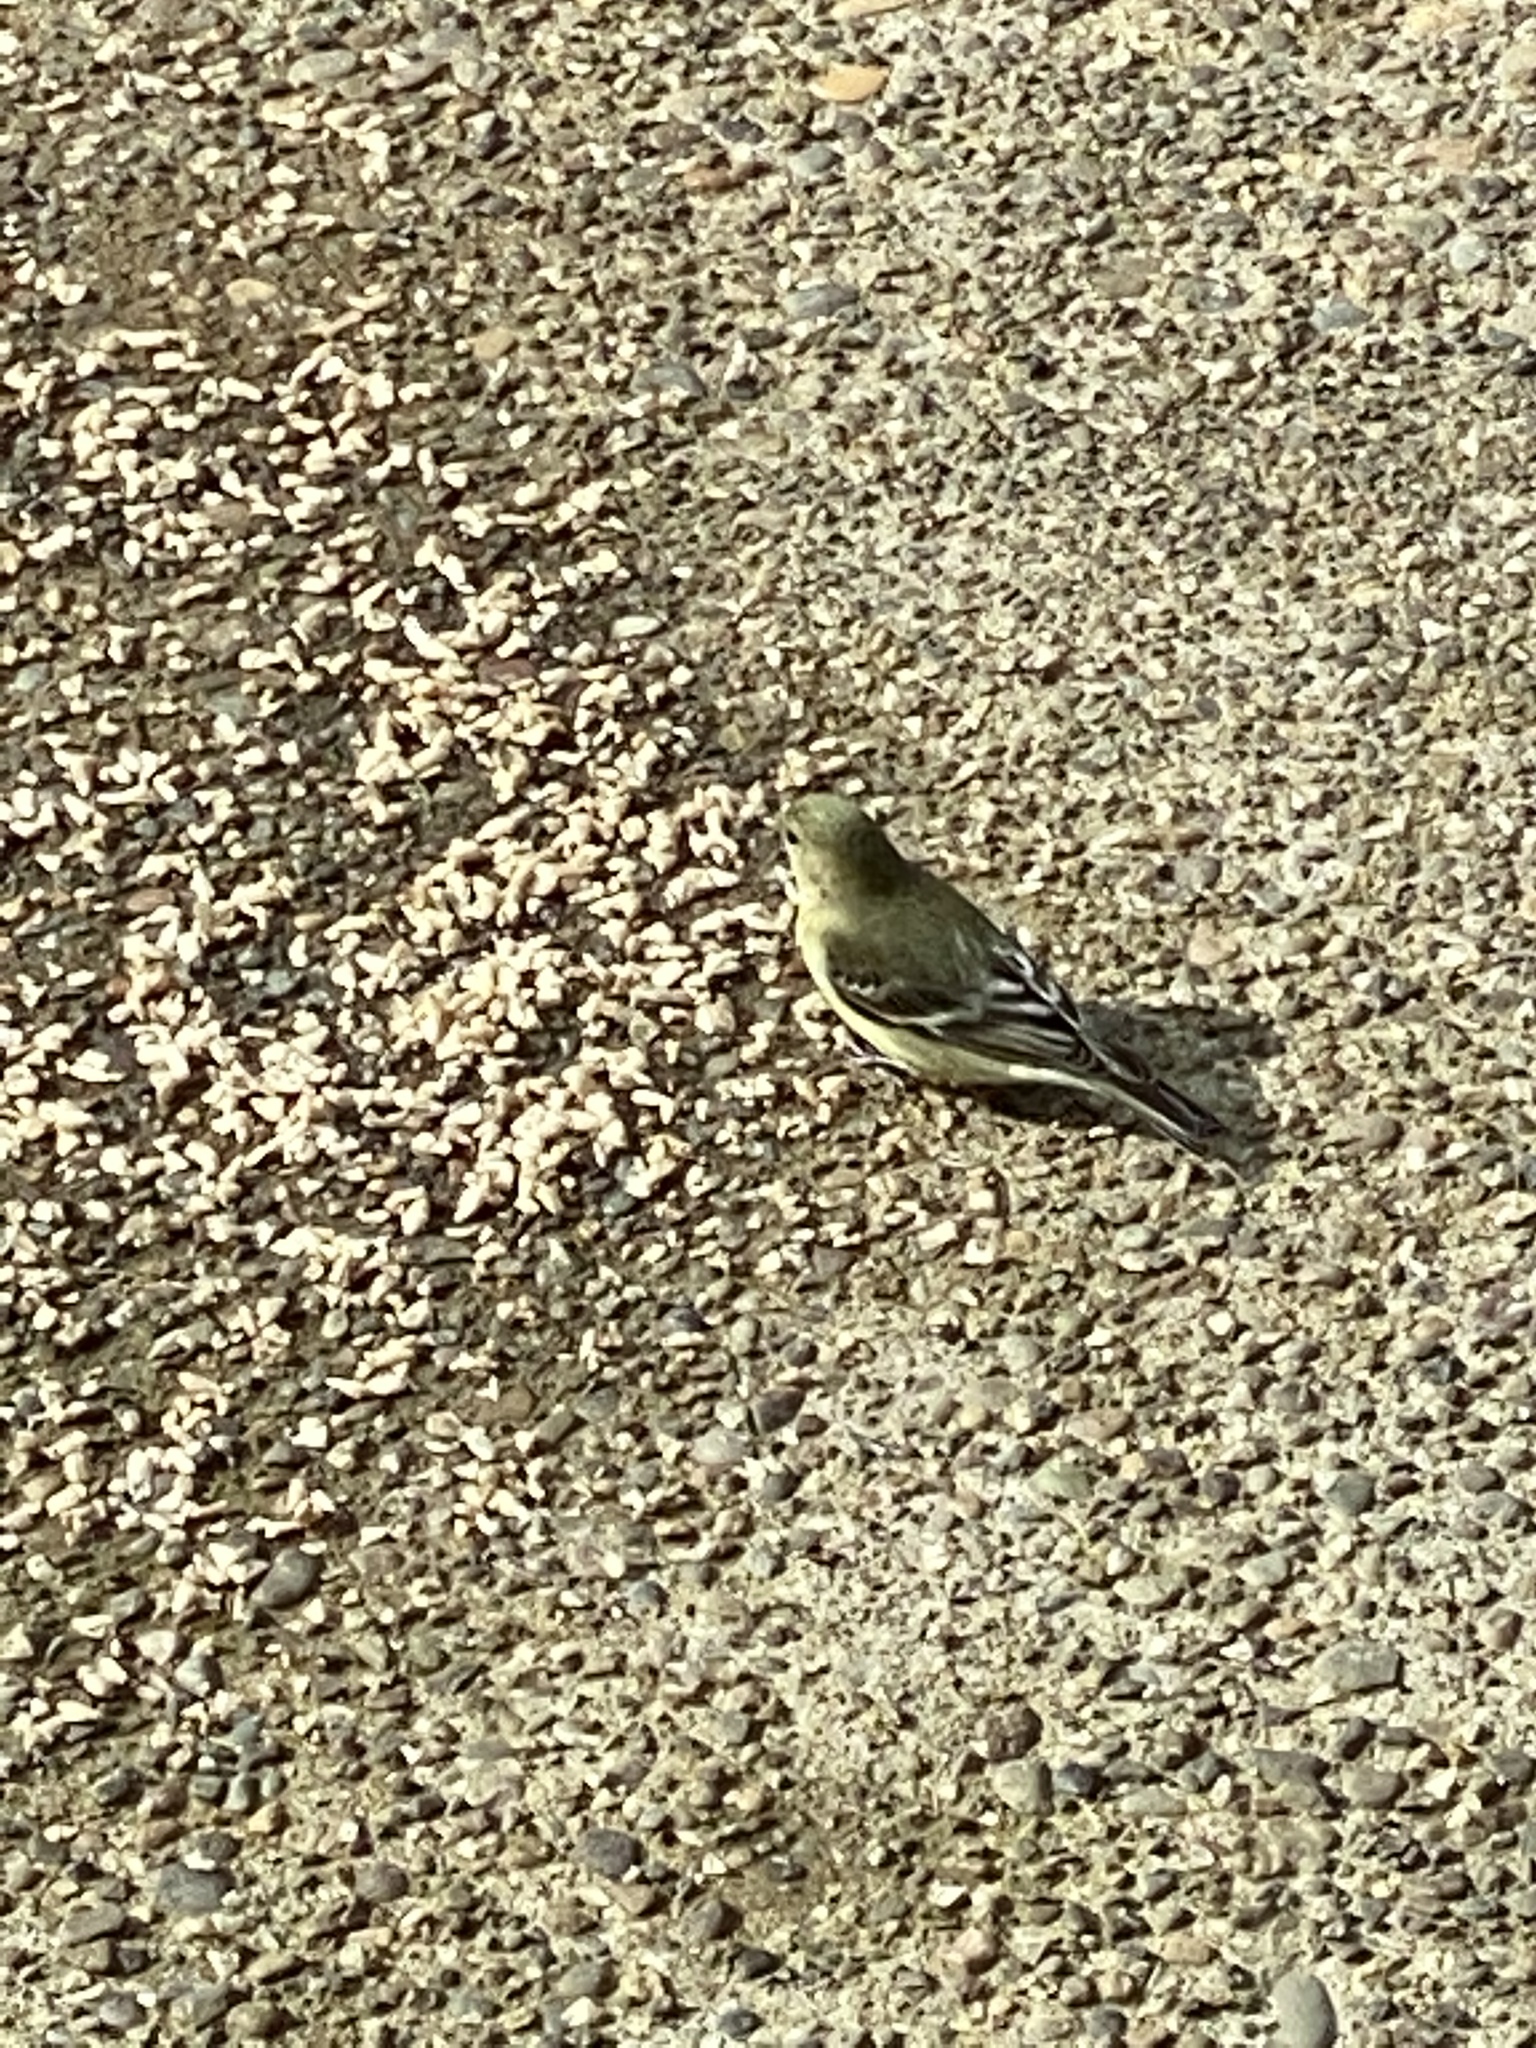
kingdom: Animalia
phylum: Chordata
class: Aves
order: Passeriformes
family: Fringillidae
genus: Spinus
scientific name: Spinus psaltria
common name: Lesser goldfinch
